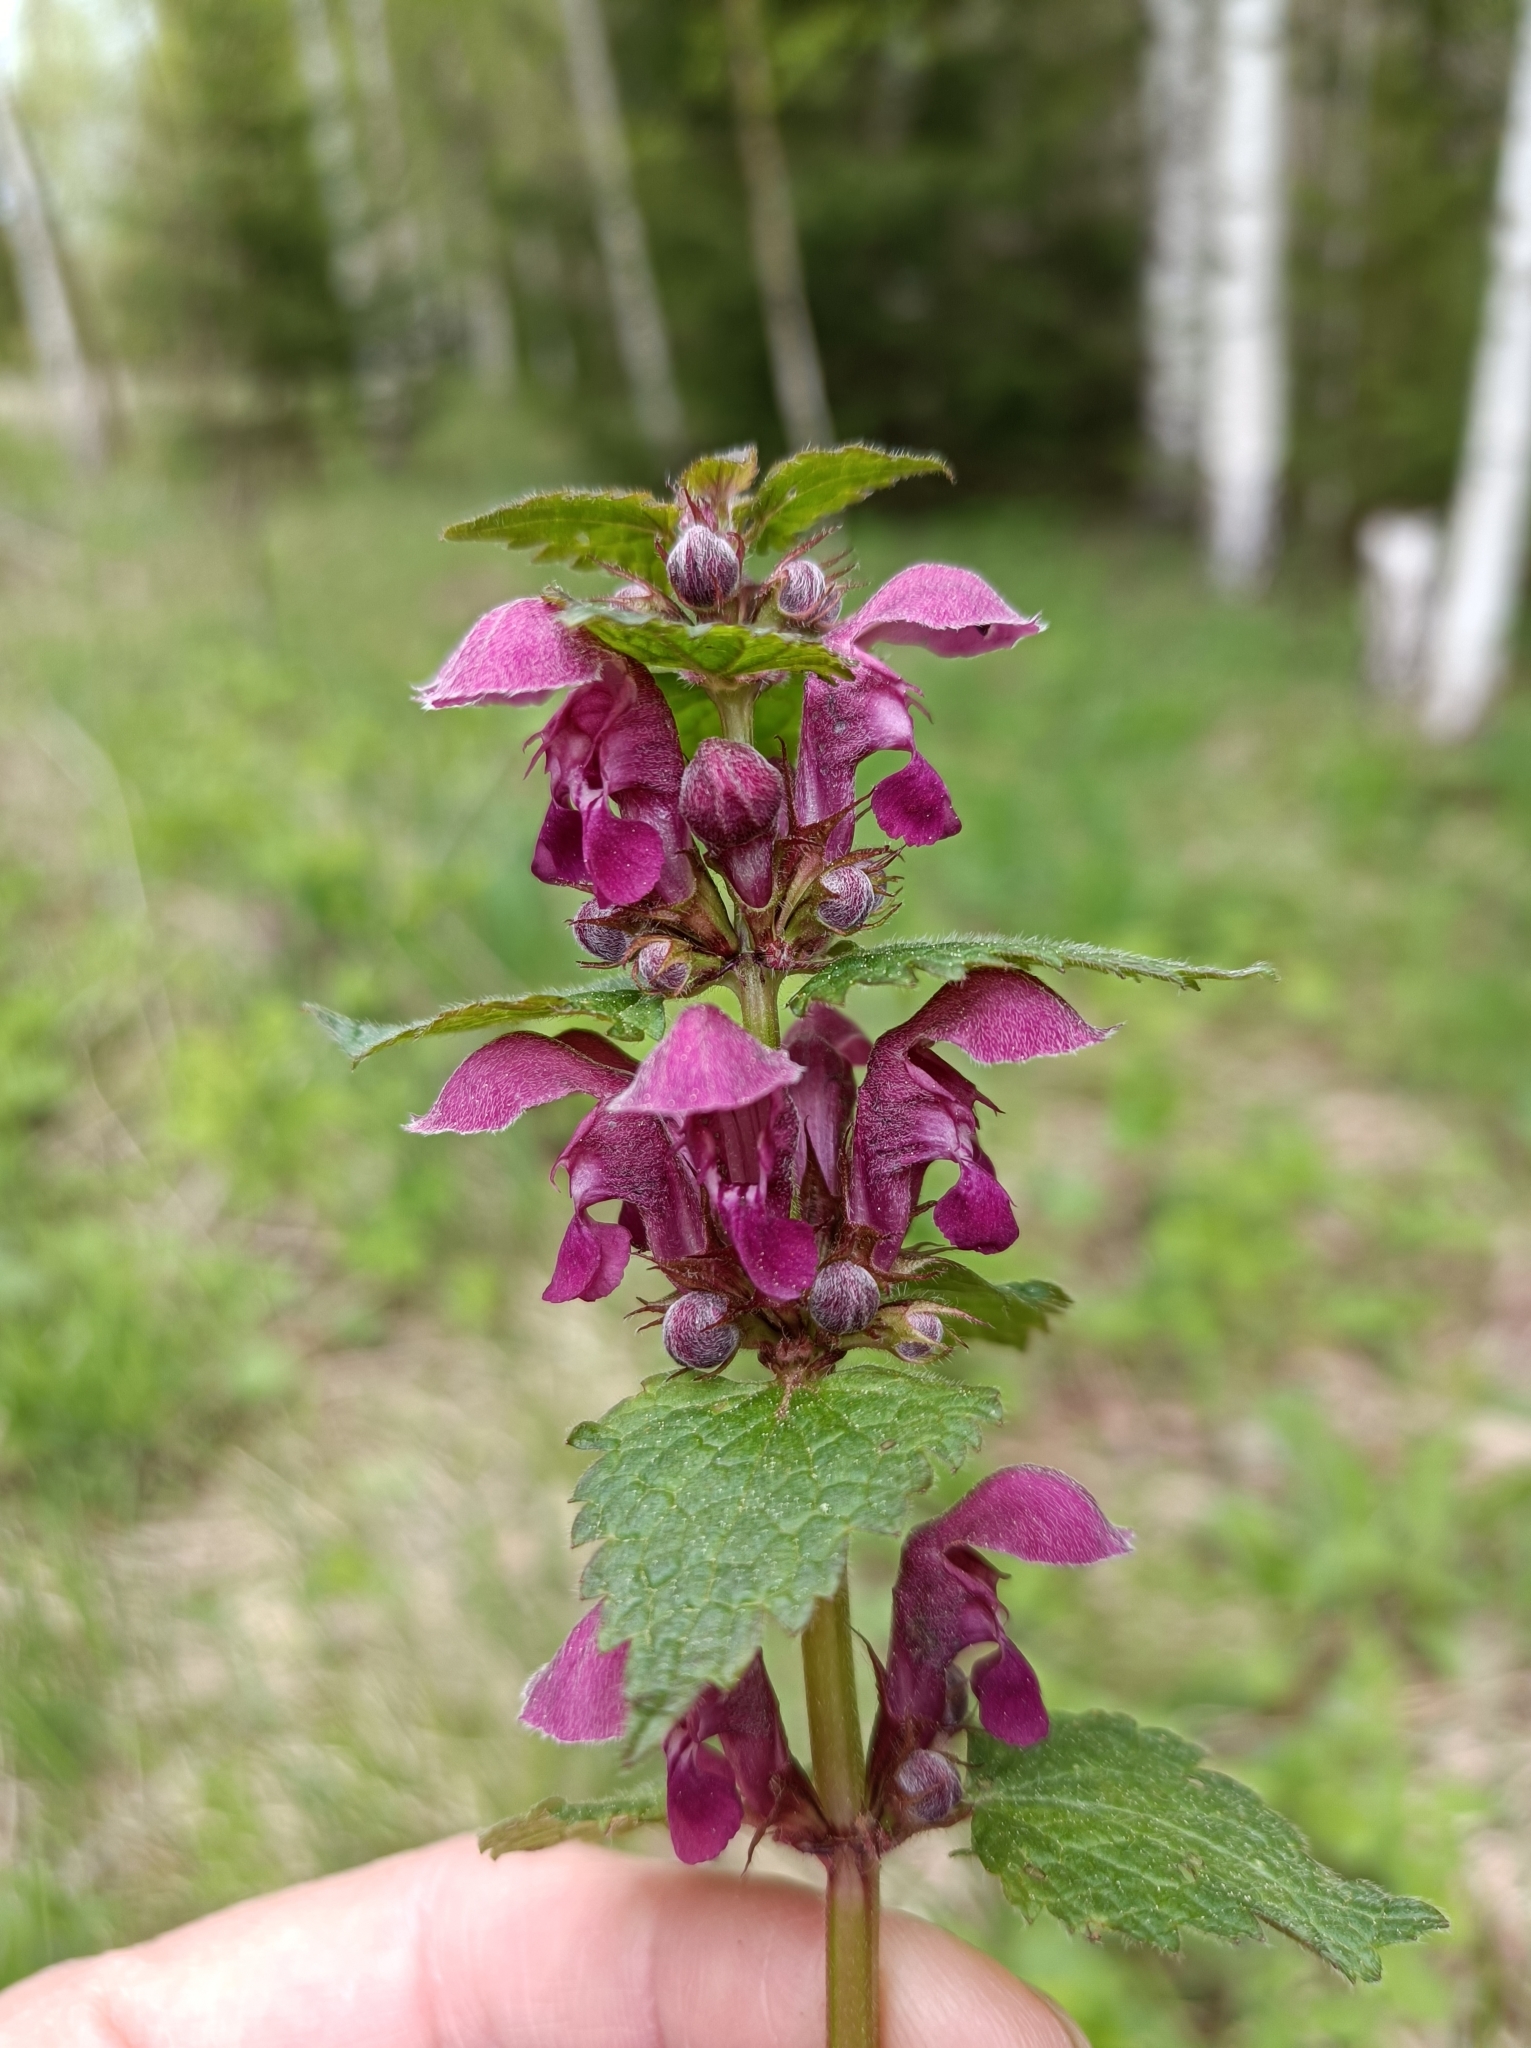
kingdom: Plantae
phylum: Tracheophyta
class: Magnoliopsida
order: Lamiales
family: Lamiaceae
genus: Lamium
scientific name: Lamium maculatum
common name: Spotted dead-nettle
